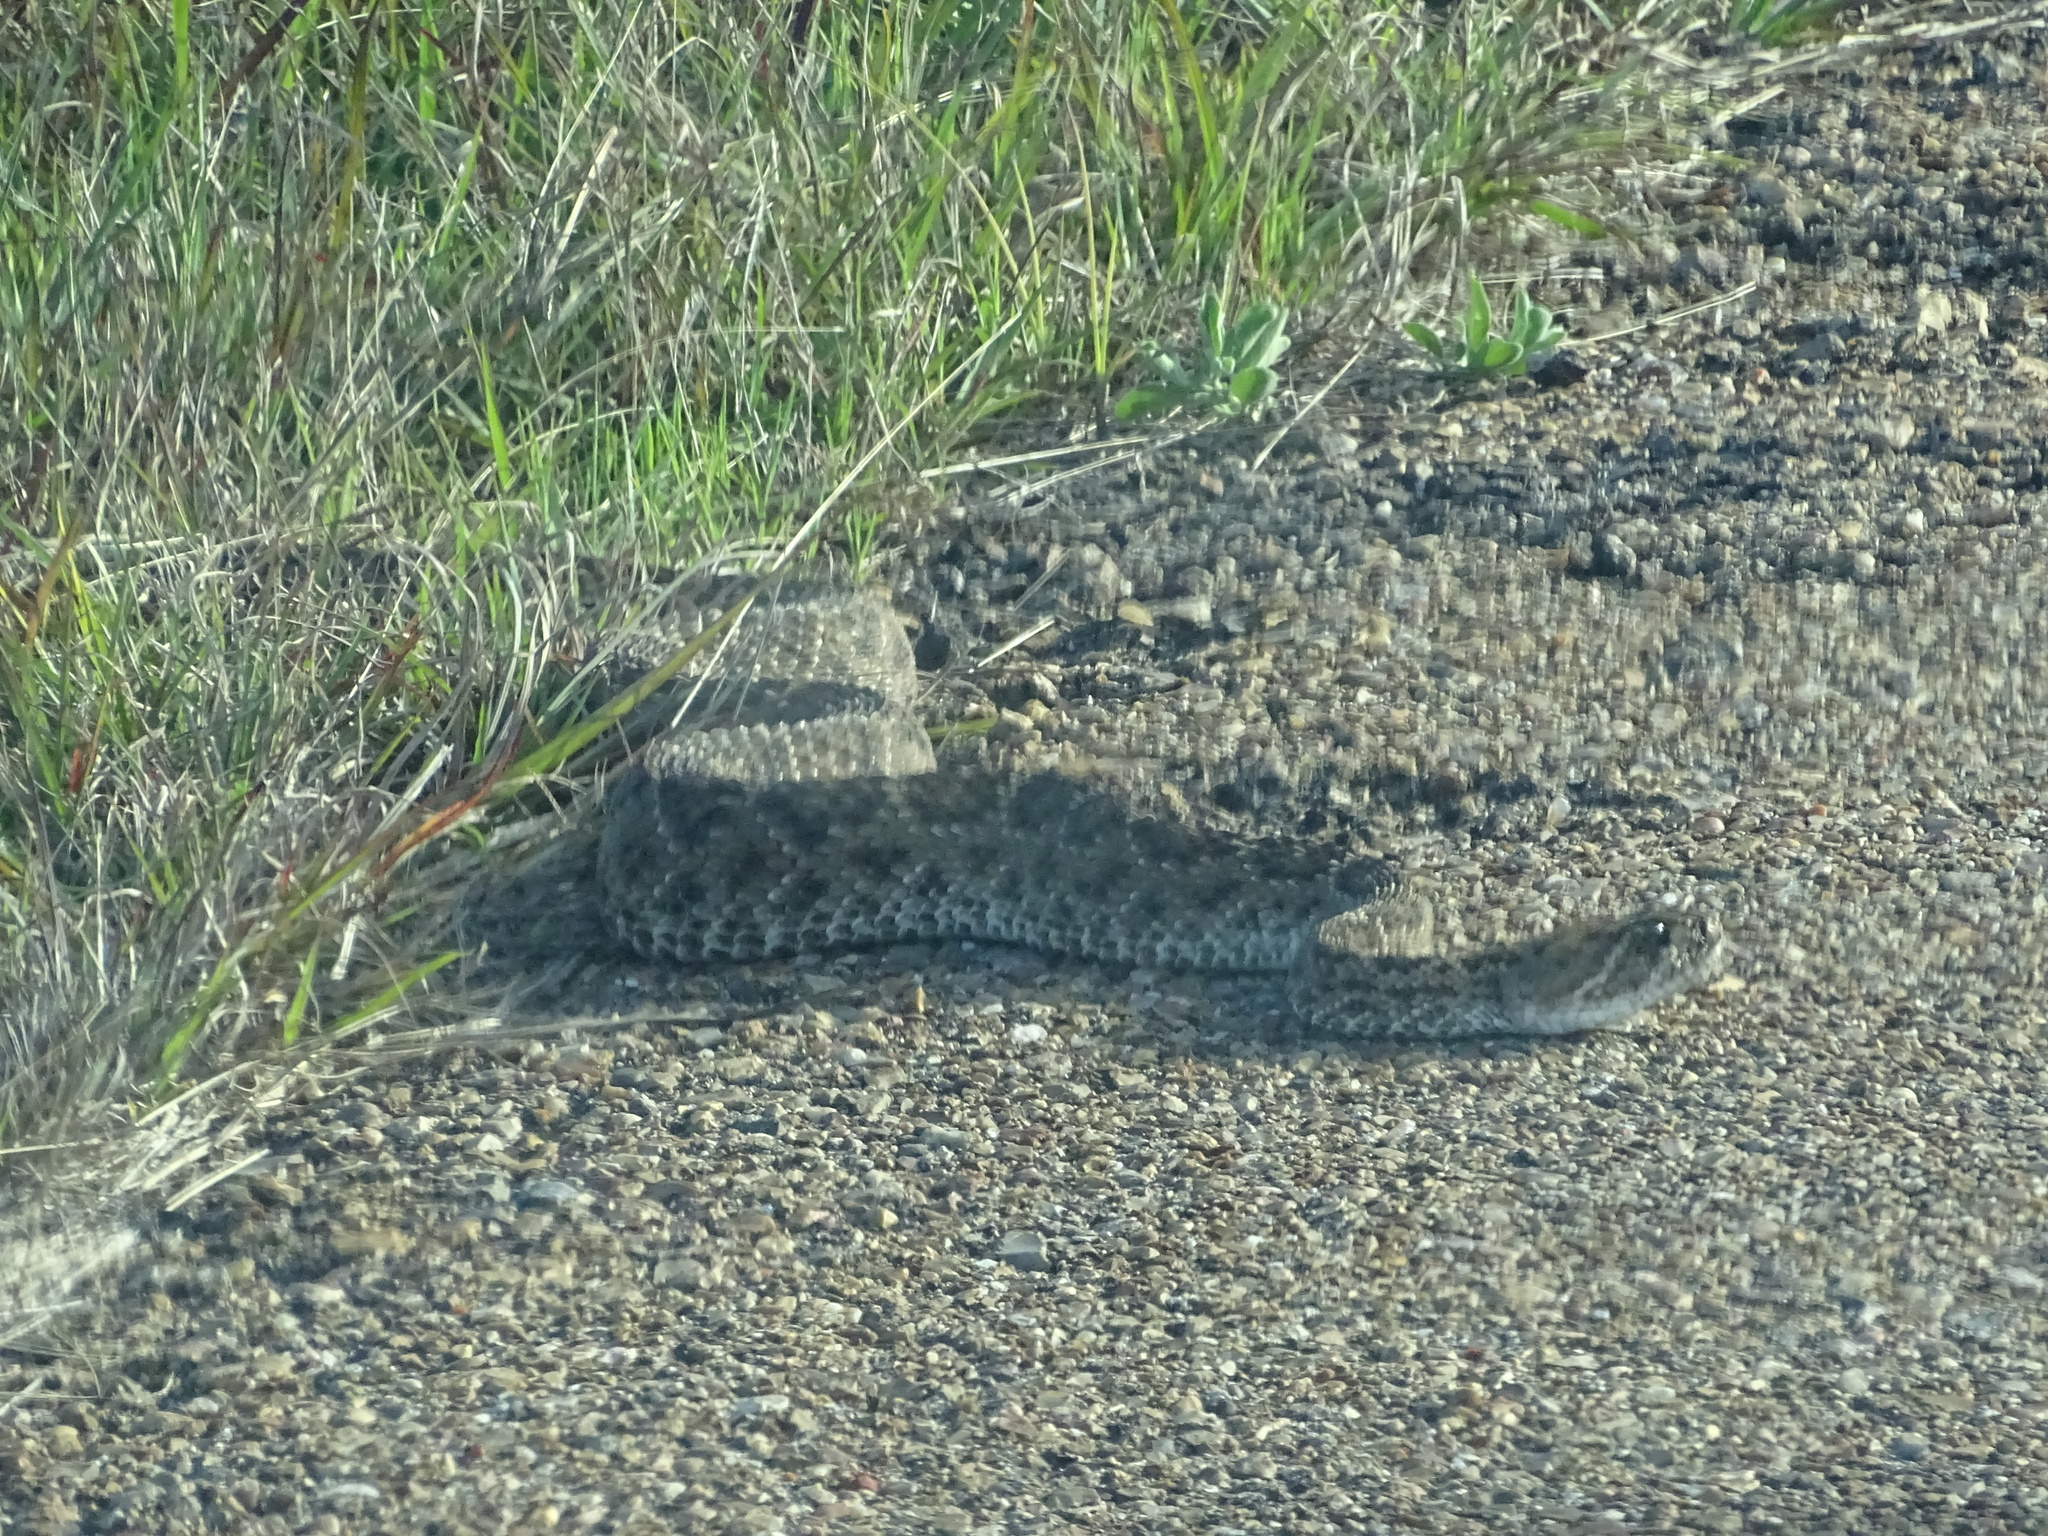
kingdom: Animalia
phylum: Chordata
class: Squamata
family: Viperidae
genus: Crotalus
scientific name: Crotalus atrox
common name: Western diamond-backed rattlesnake
